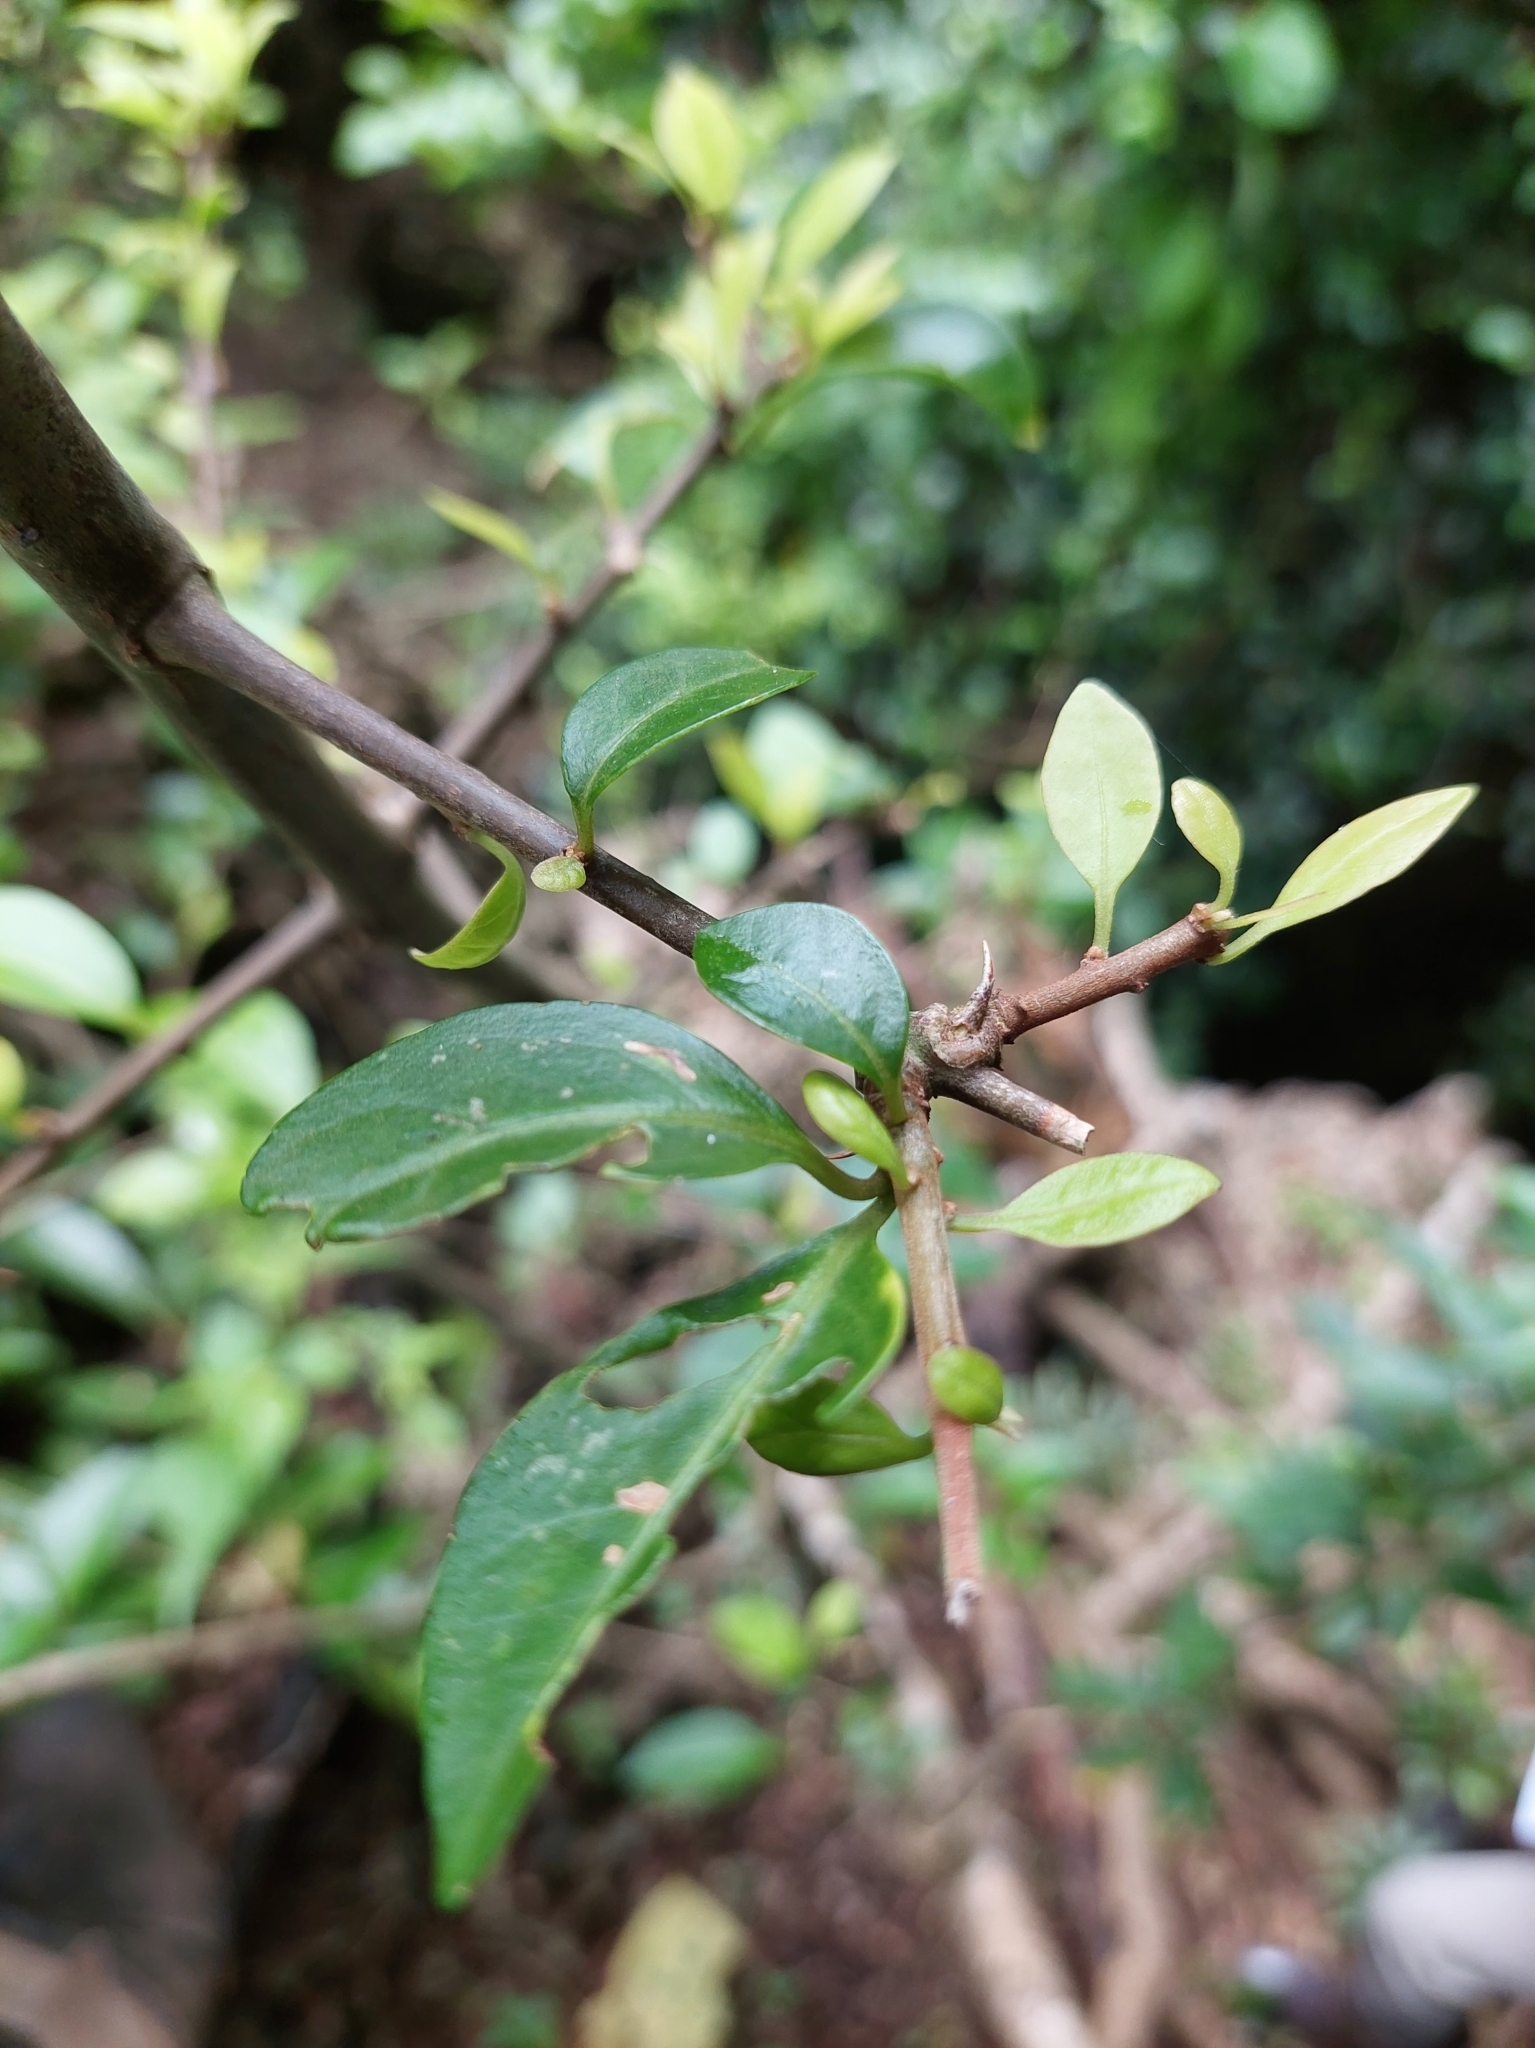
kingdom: Plantae
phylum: Tracheophyta
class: Magnoliopsida
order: Caryophyllales
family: Nyctaginaceae
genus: Pisonia
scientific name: Pisonia aculeata
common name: Cockspur vine
